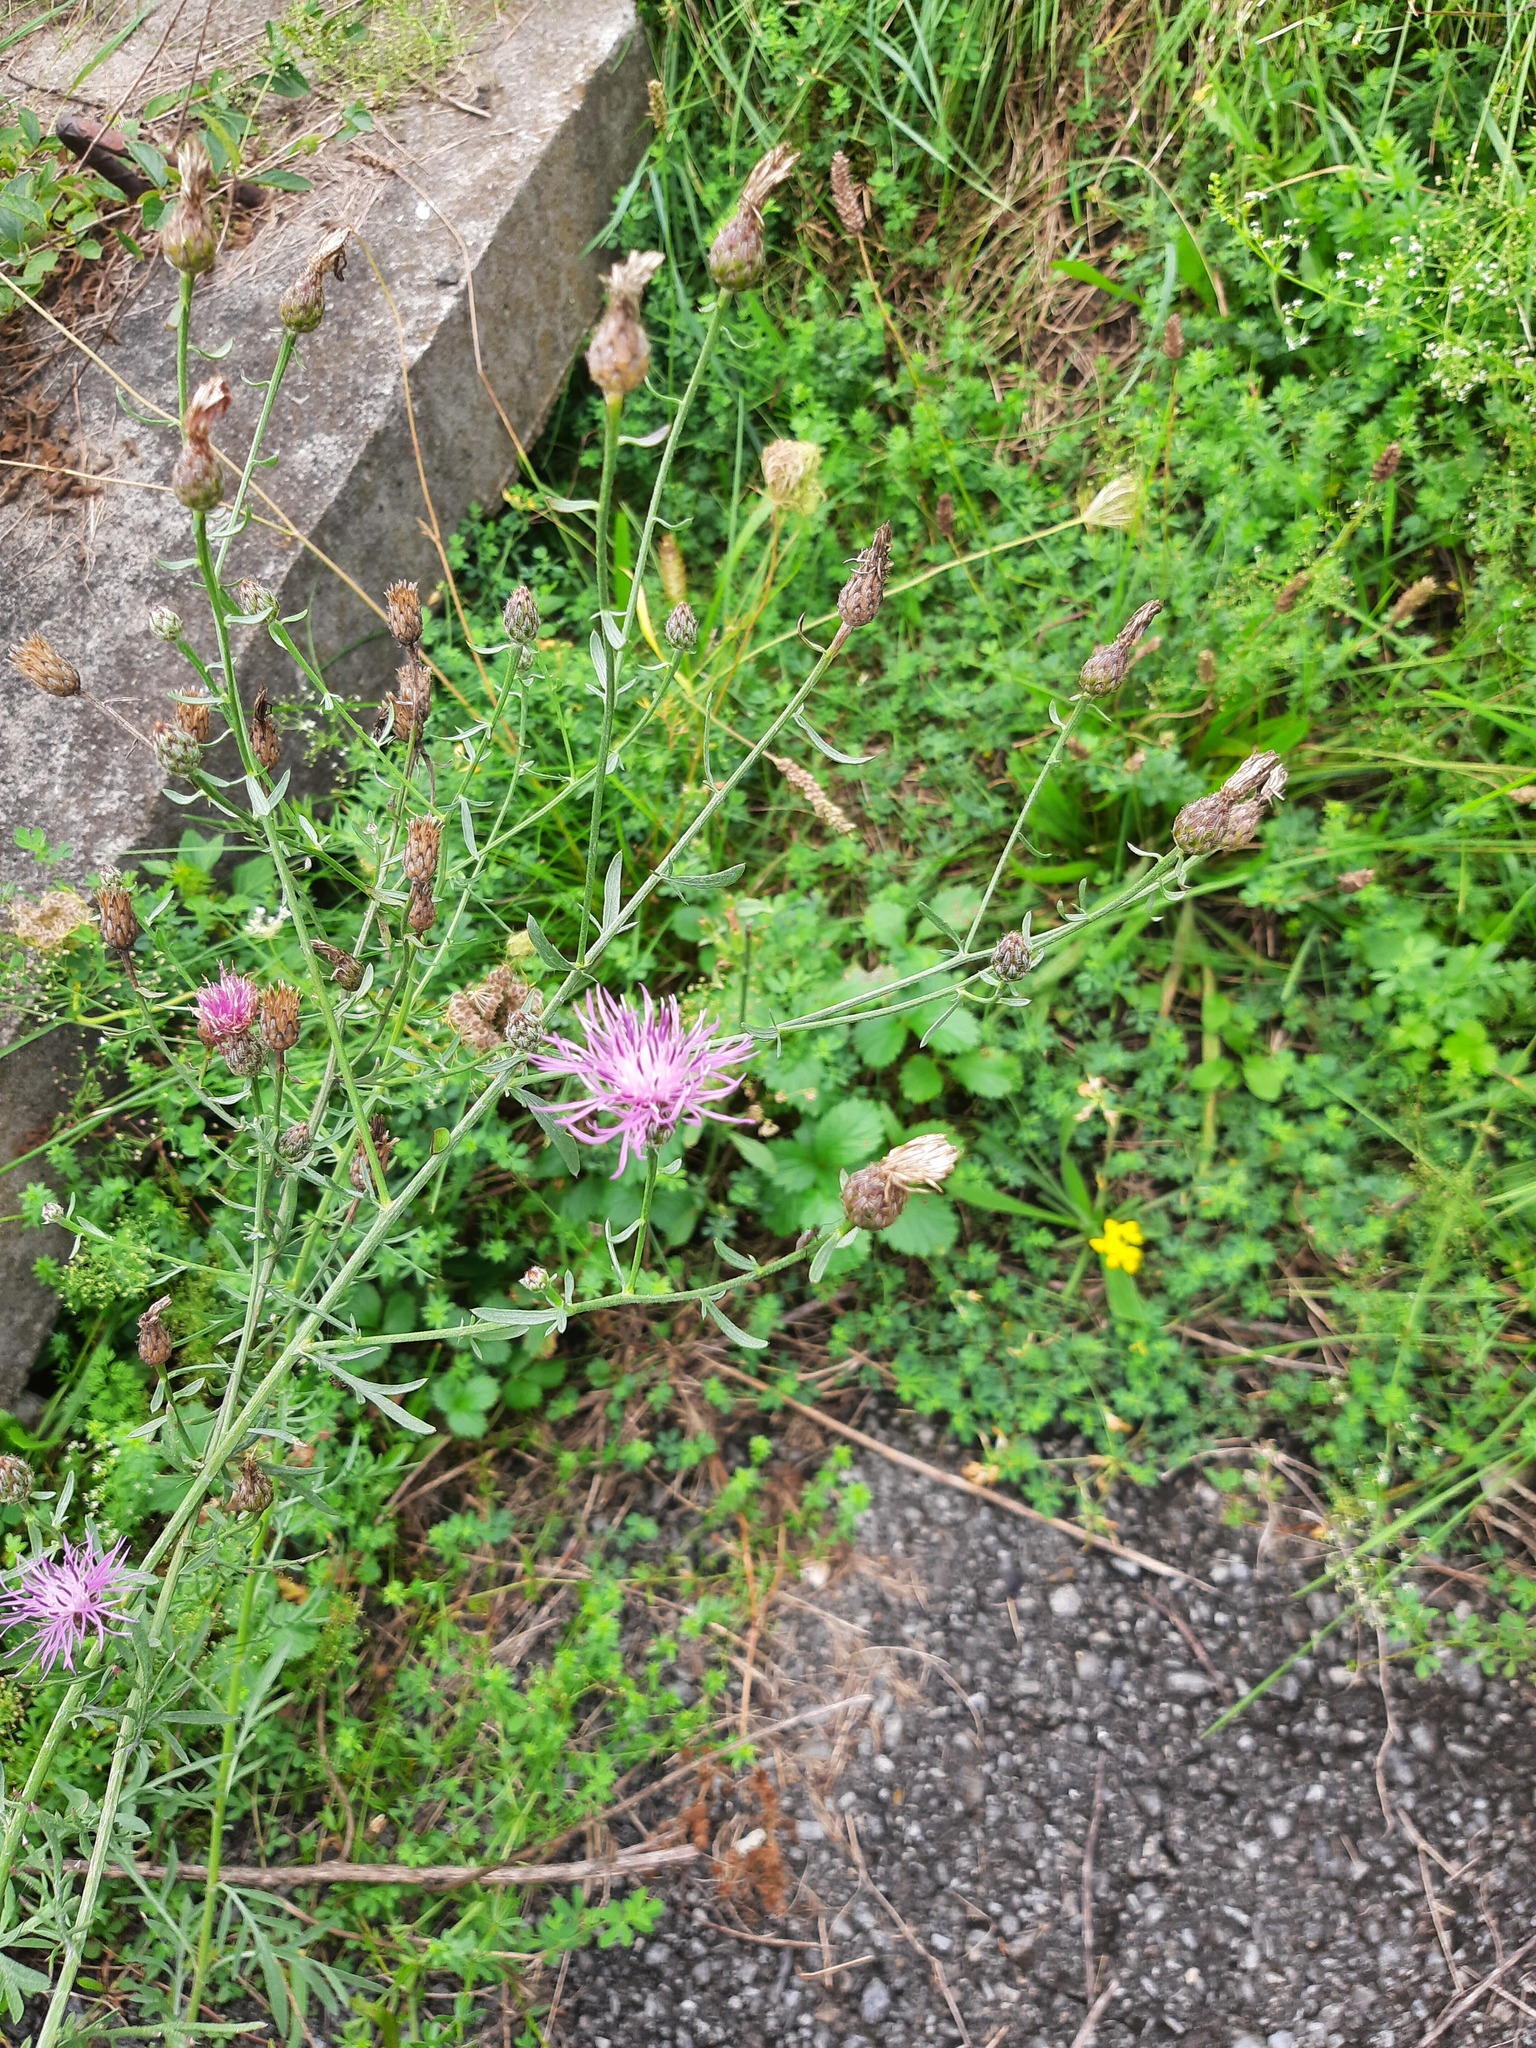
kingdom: Plantae
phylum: Tracheophyta
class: Magnoliopsida
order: Asterales
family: Asteraceae
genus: Centaurea
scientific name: Centaurea stoebe
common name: Spotted knapweed
